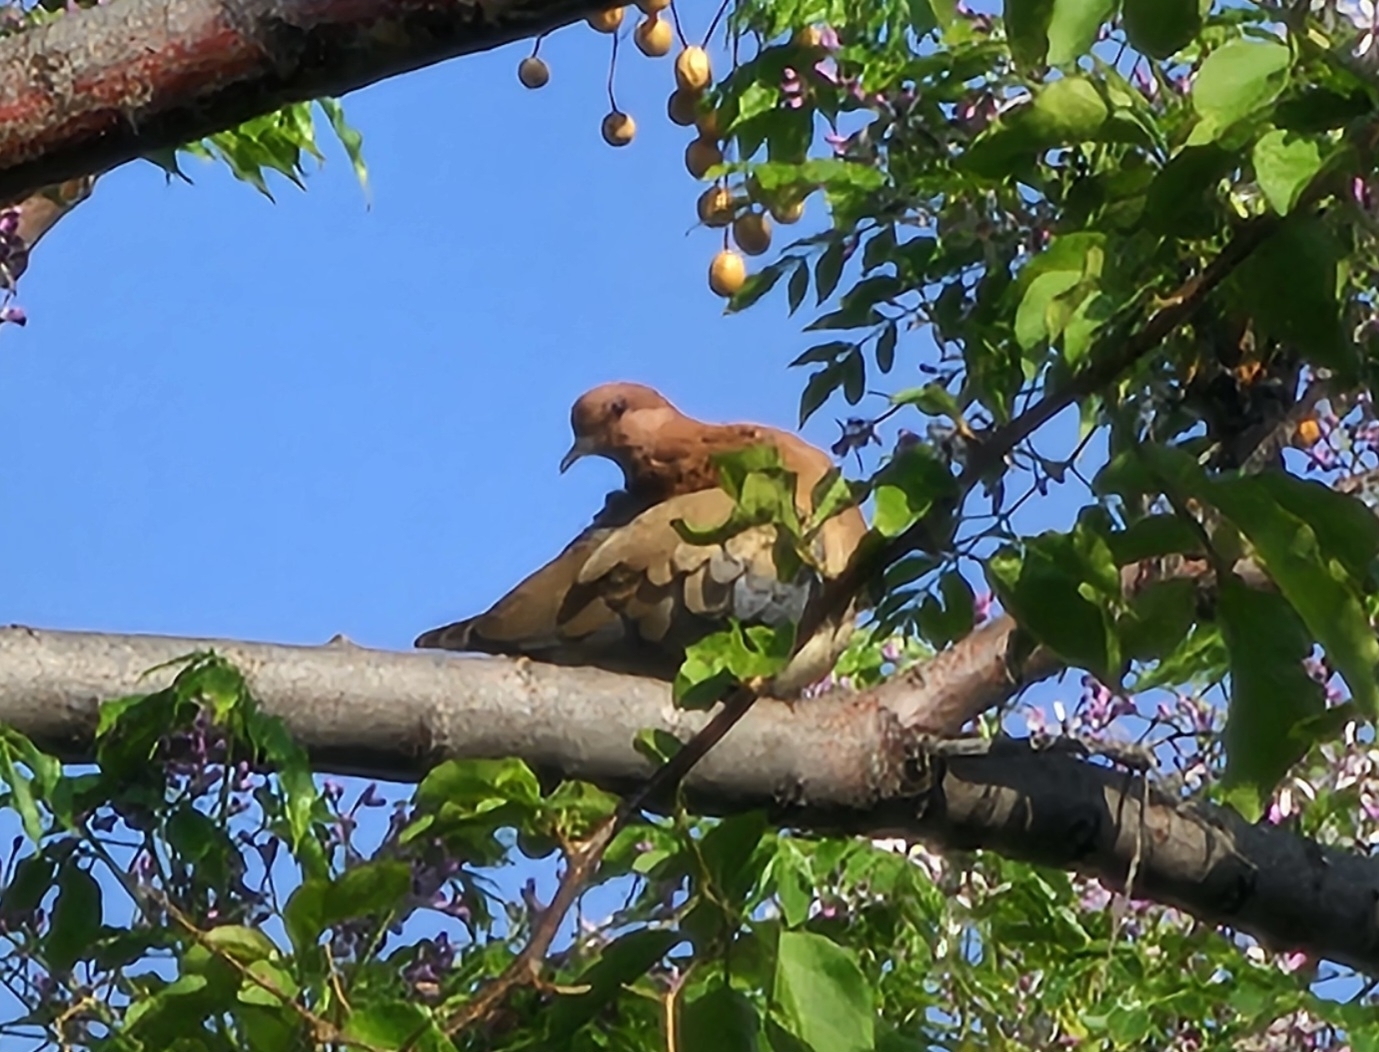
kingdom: Animalia
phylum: Chordata
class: Aves
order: Columbiformes
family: Columbidae
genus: Spilopelia
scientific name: Spilopelia senegalensis
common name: Laughing dove
